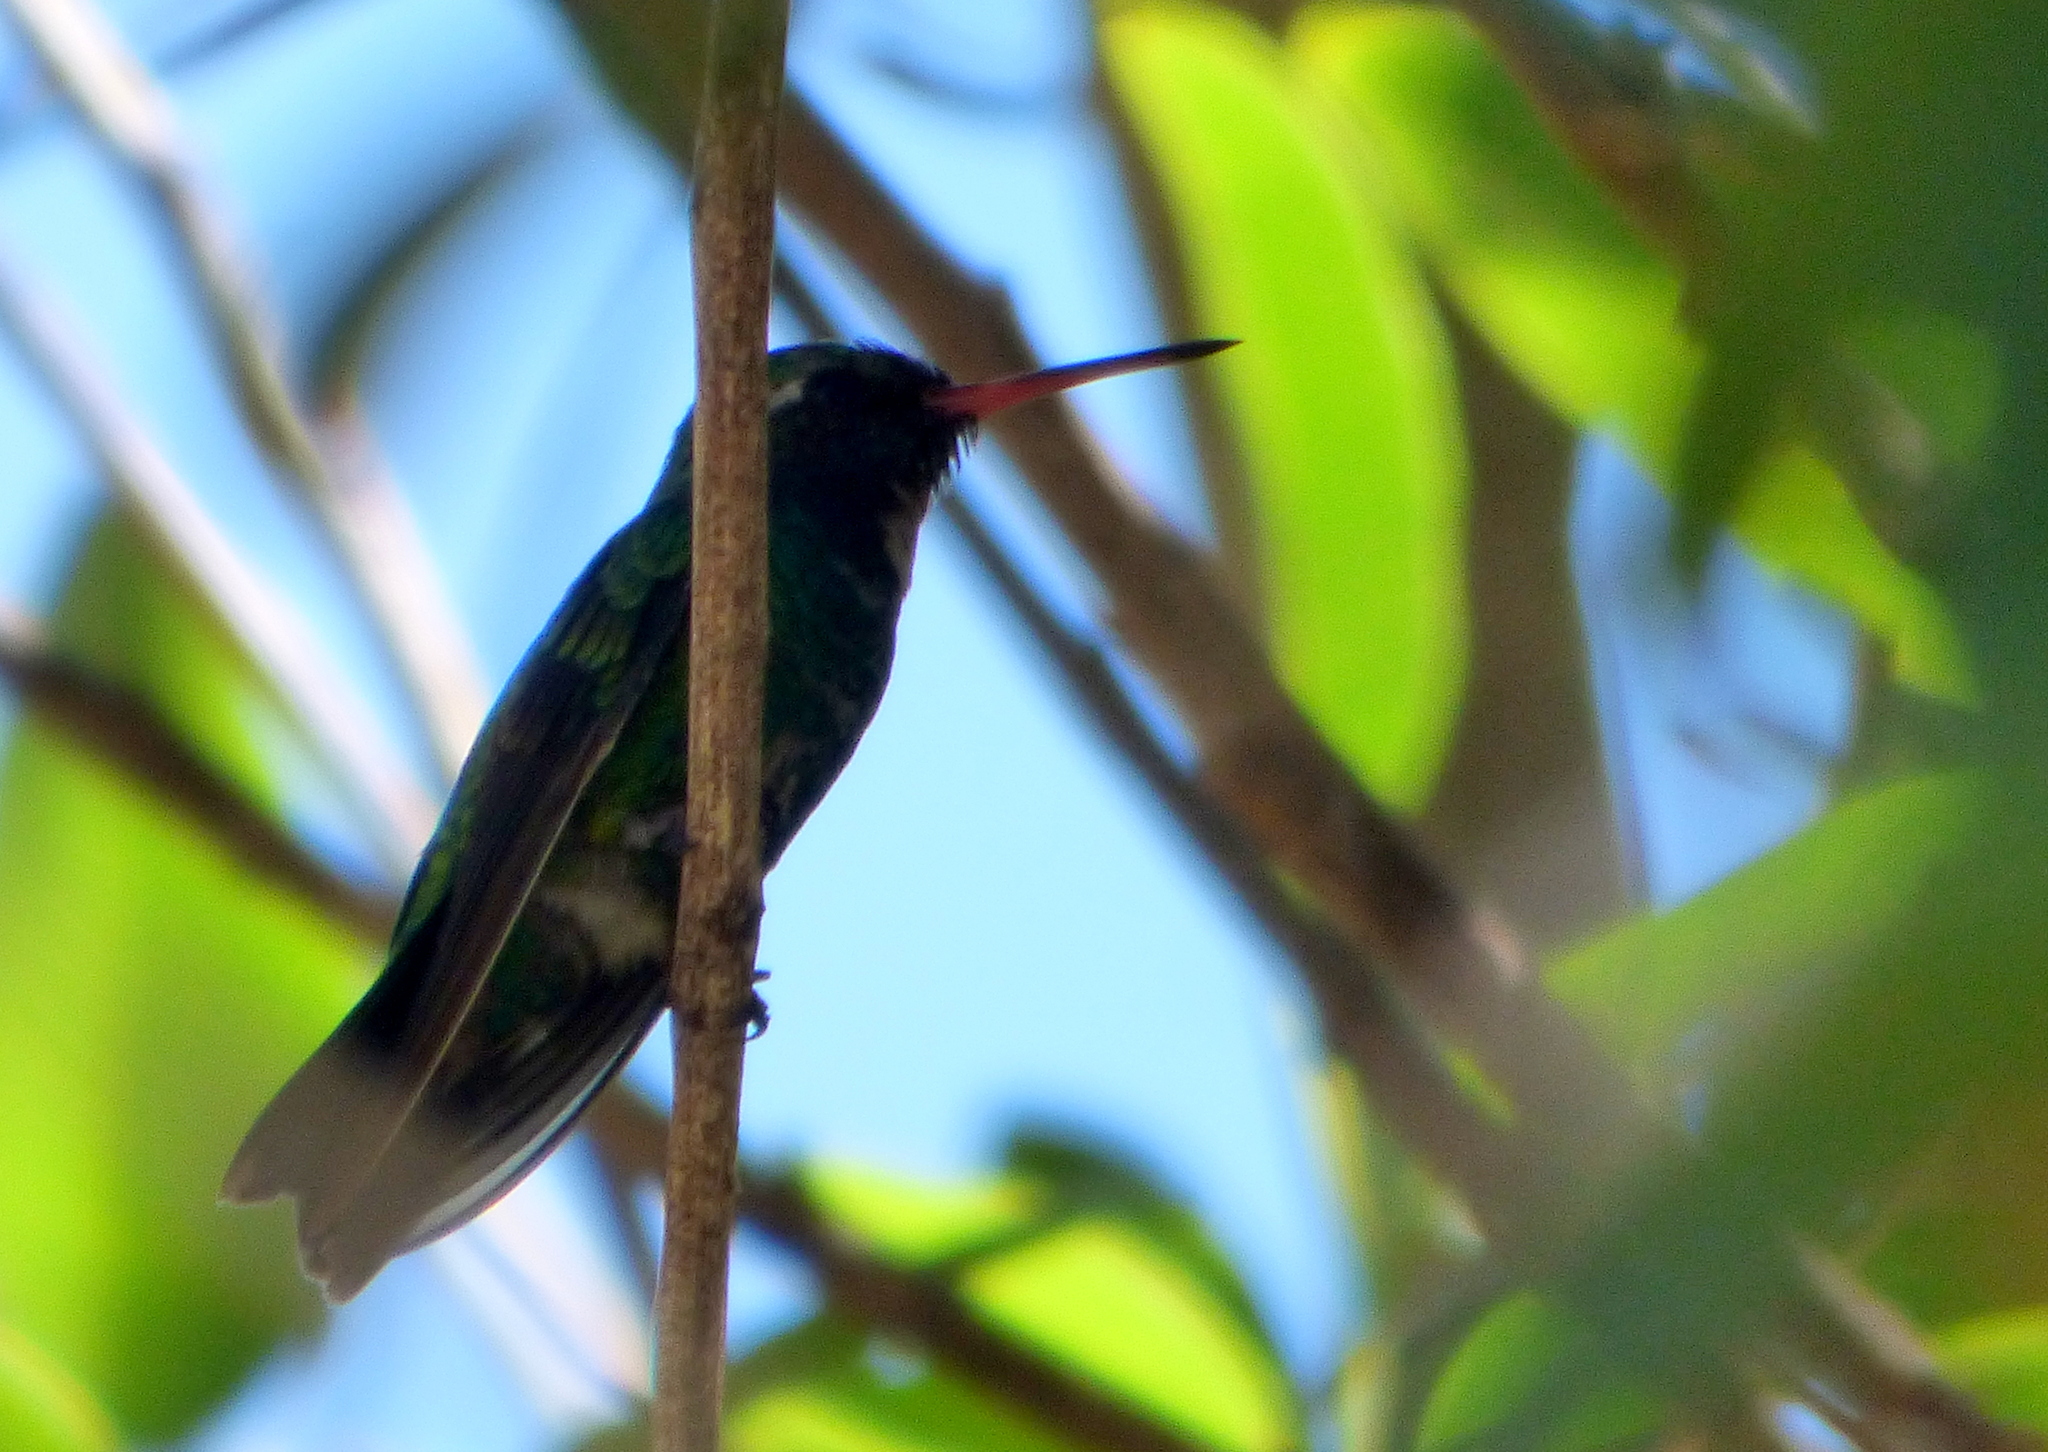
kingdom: Animalia
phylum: Chordata
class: Aves
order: Apodiformes
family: Trochilidae
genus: Chlorostilbon
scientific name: Chlorostilbon lucidus
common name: Glittering-bellied emerald
